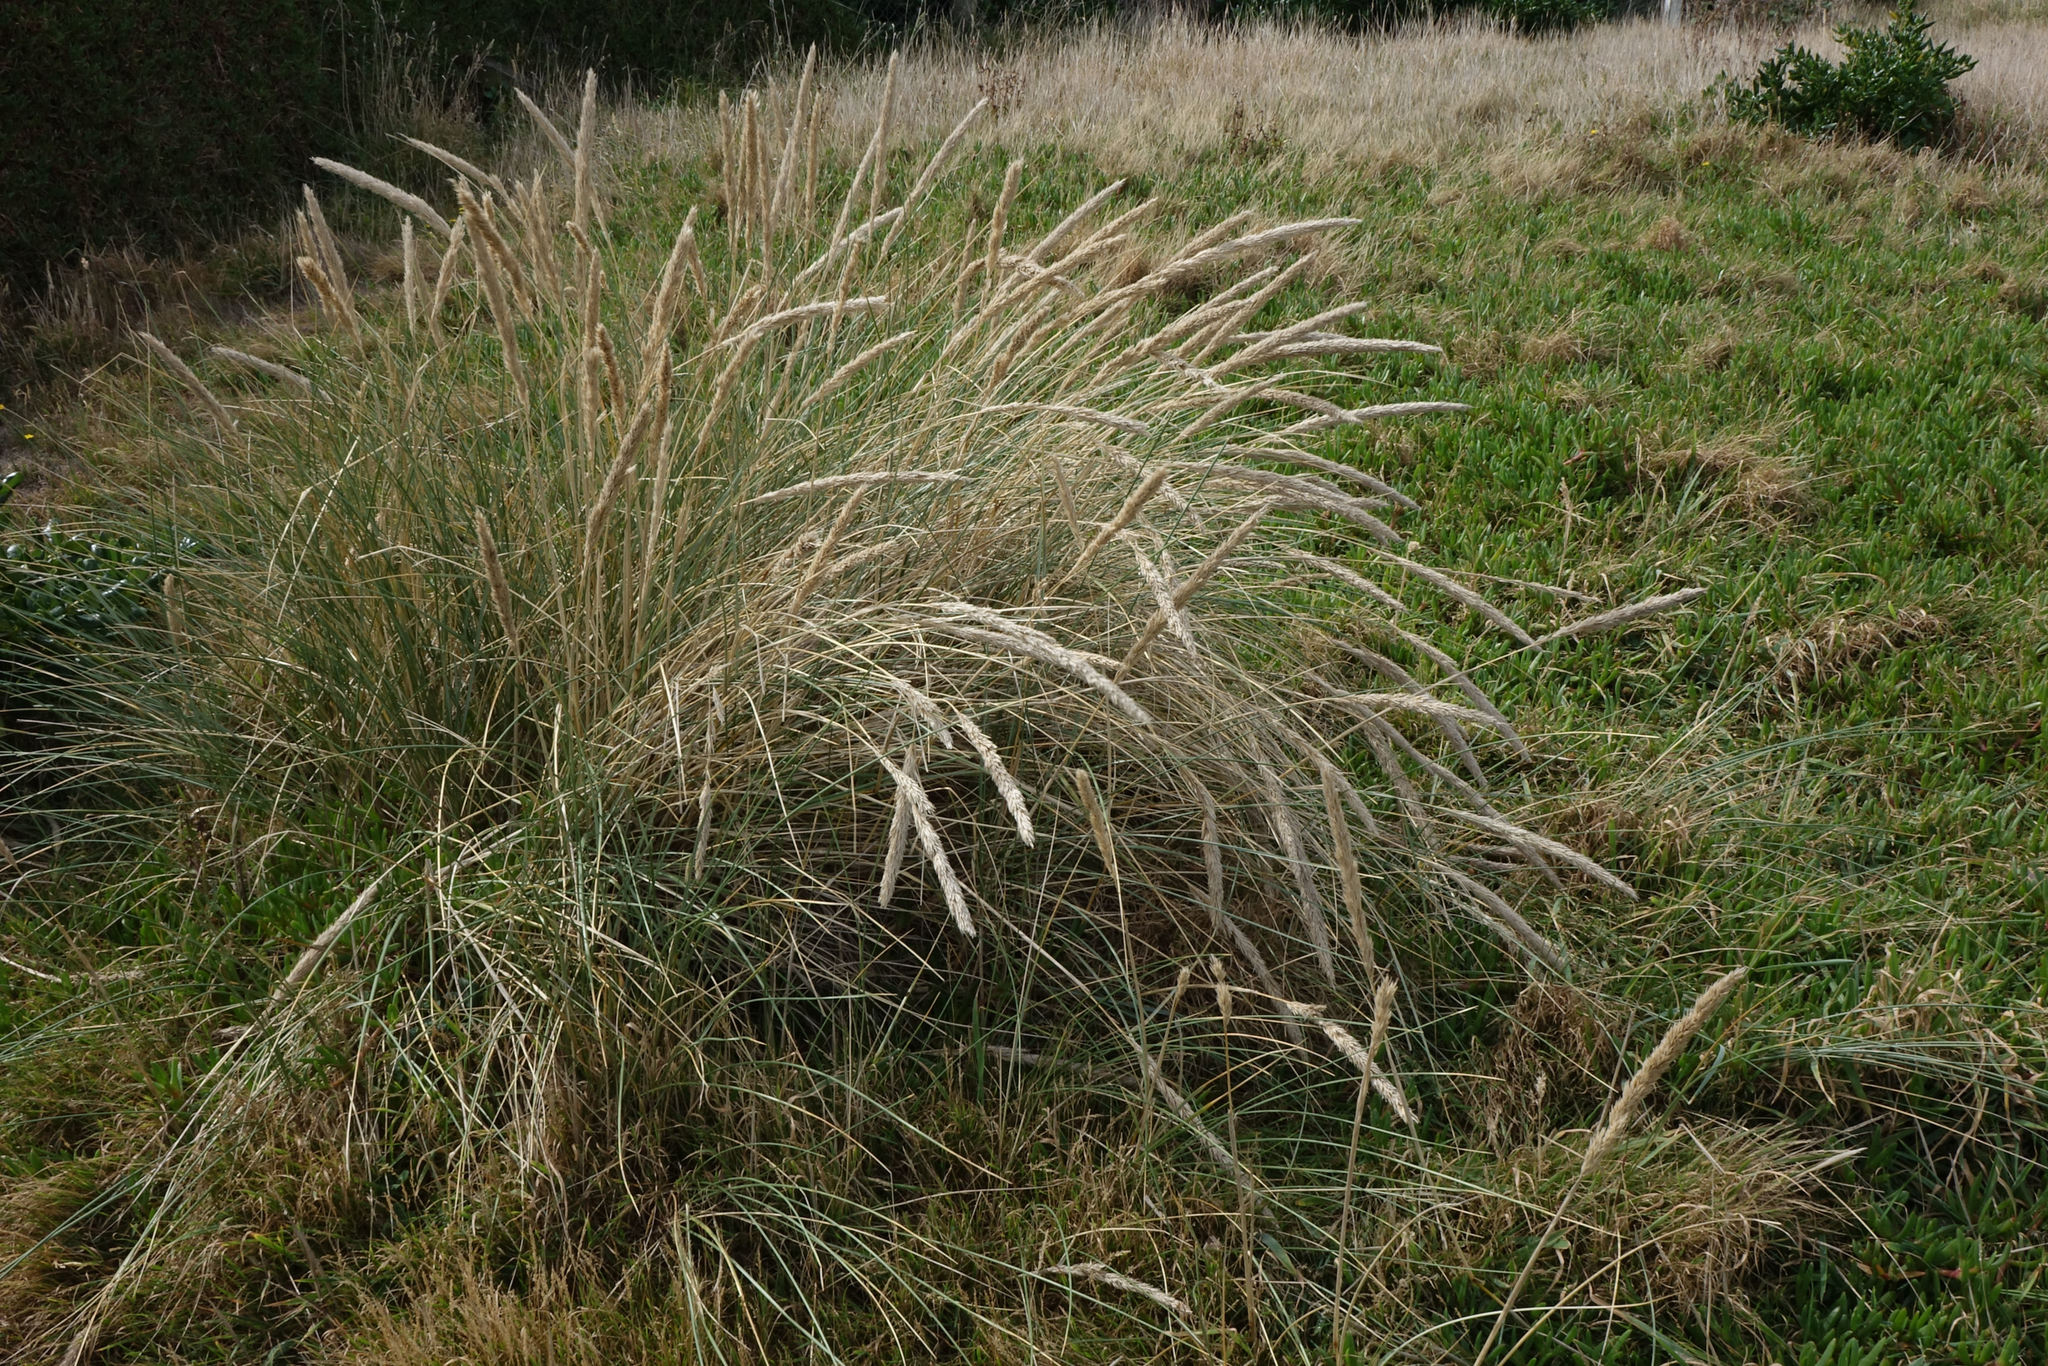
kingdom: Plantae
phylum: Tracheophyta
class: Liliopsida
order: Poales
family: Poaceae
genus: Calamagrostis
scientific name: Calamagrostis arenaria
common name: European beachgrass
